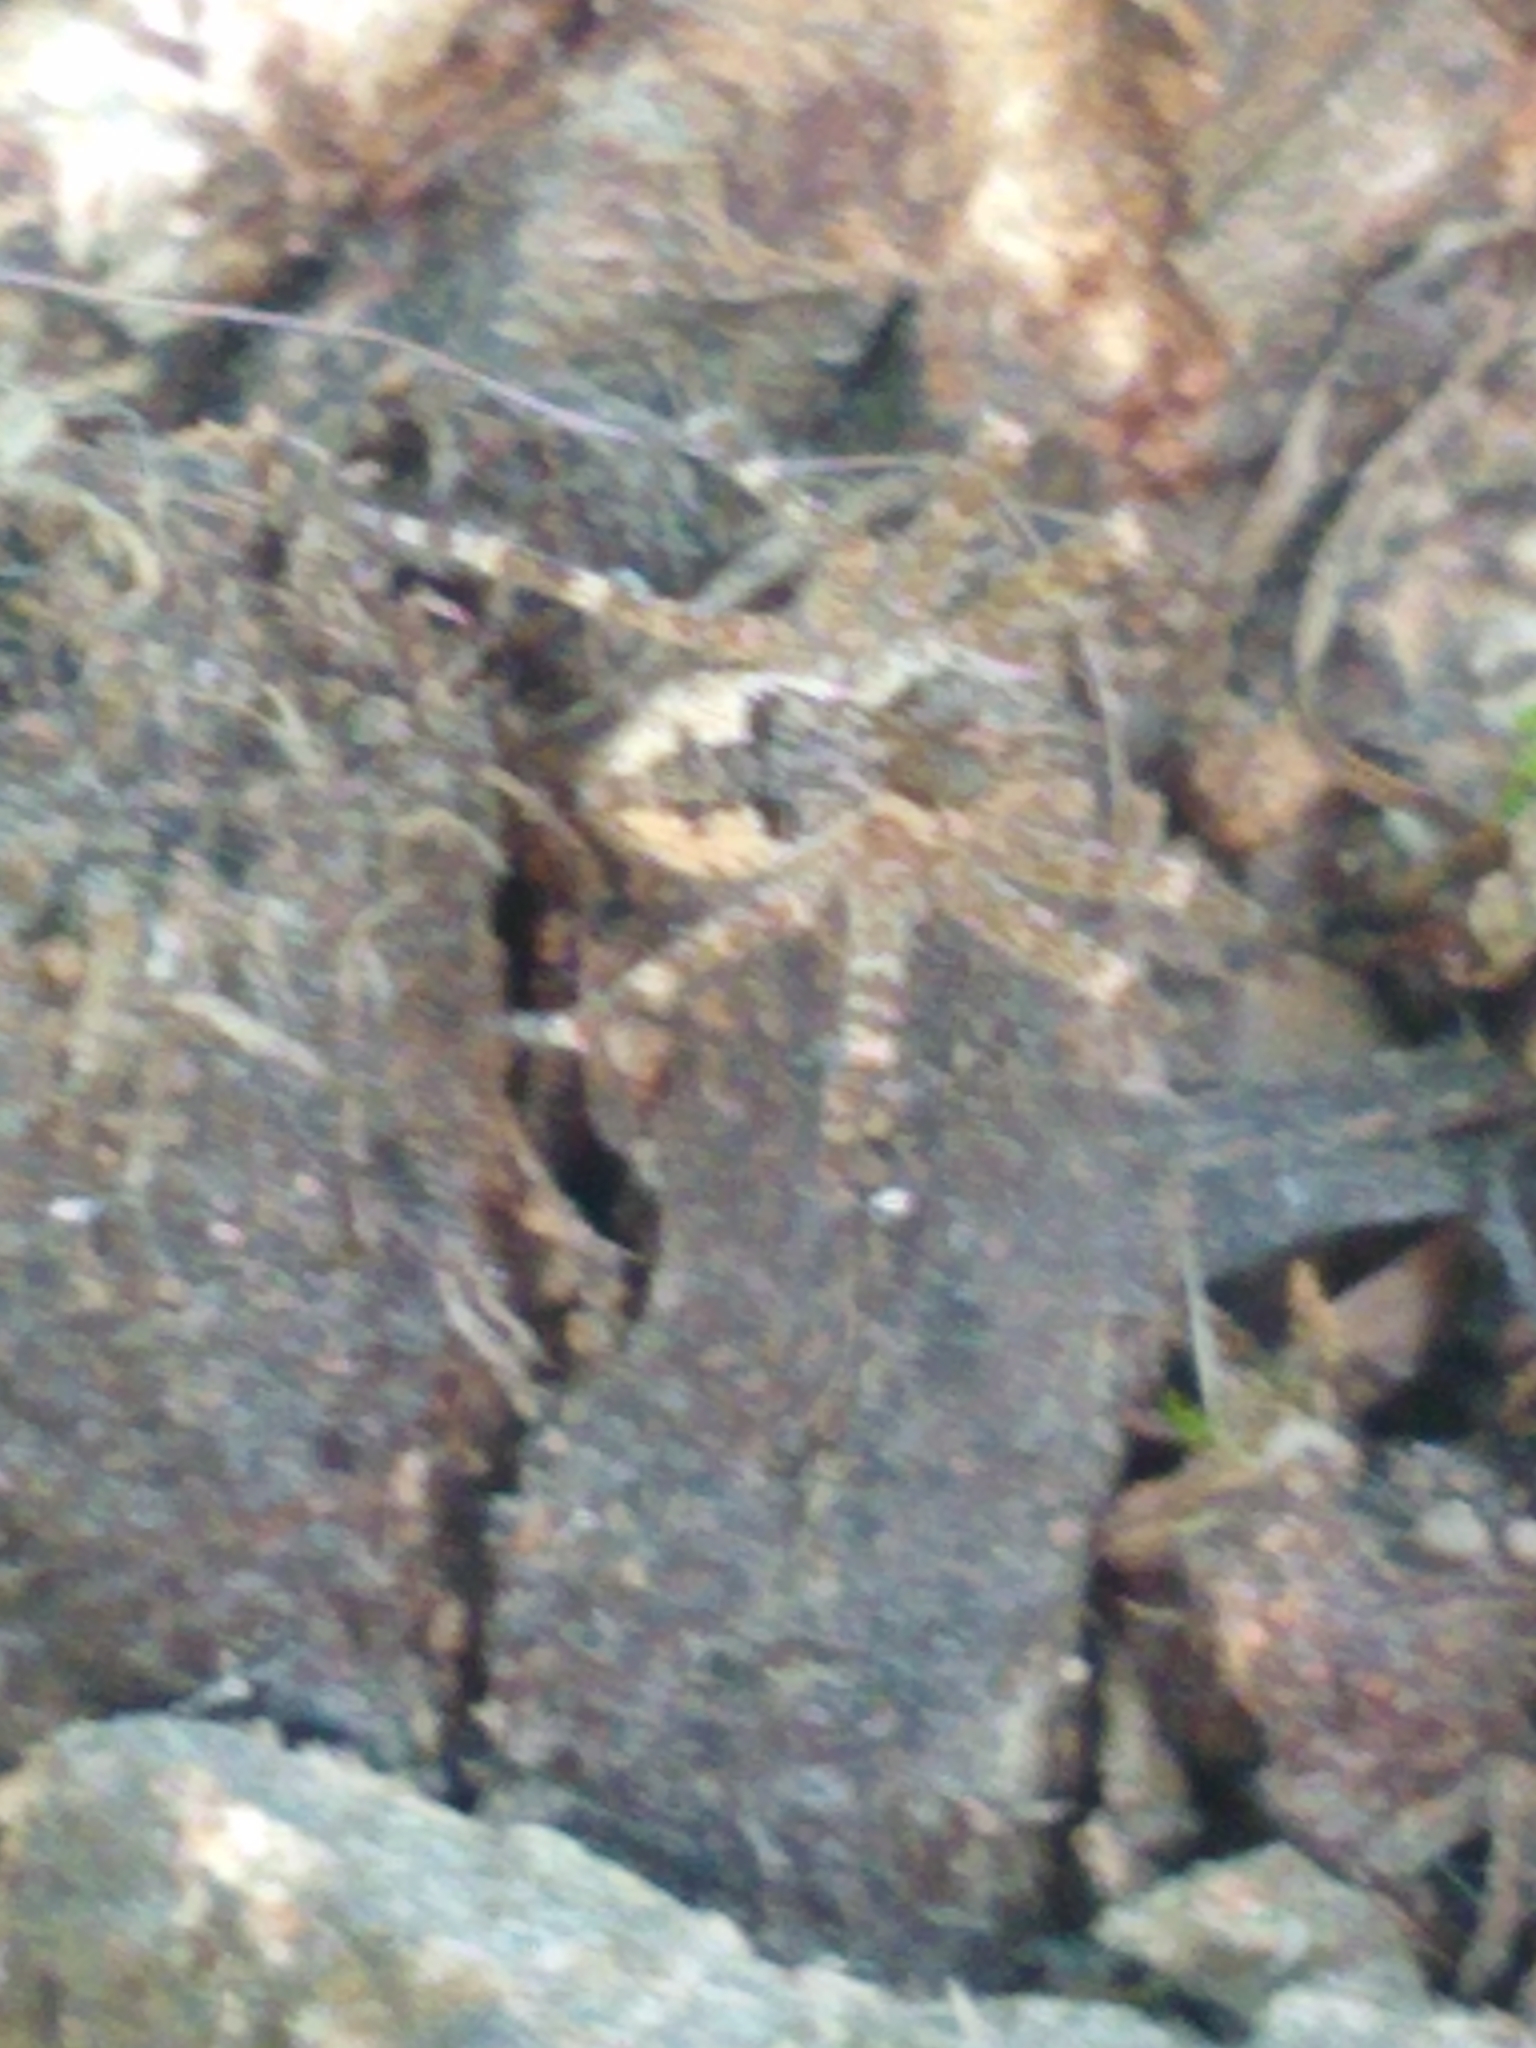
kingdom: Animalia
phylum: Arthropoda
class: Arachnida
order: Araneae
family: Pisauridae
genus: Dolomedes
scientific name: Dolomedes tenebrosus
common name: Dark fishing spider
